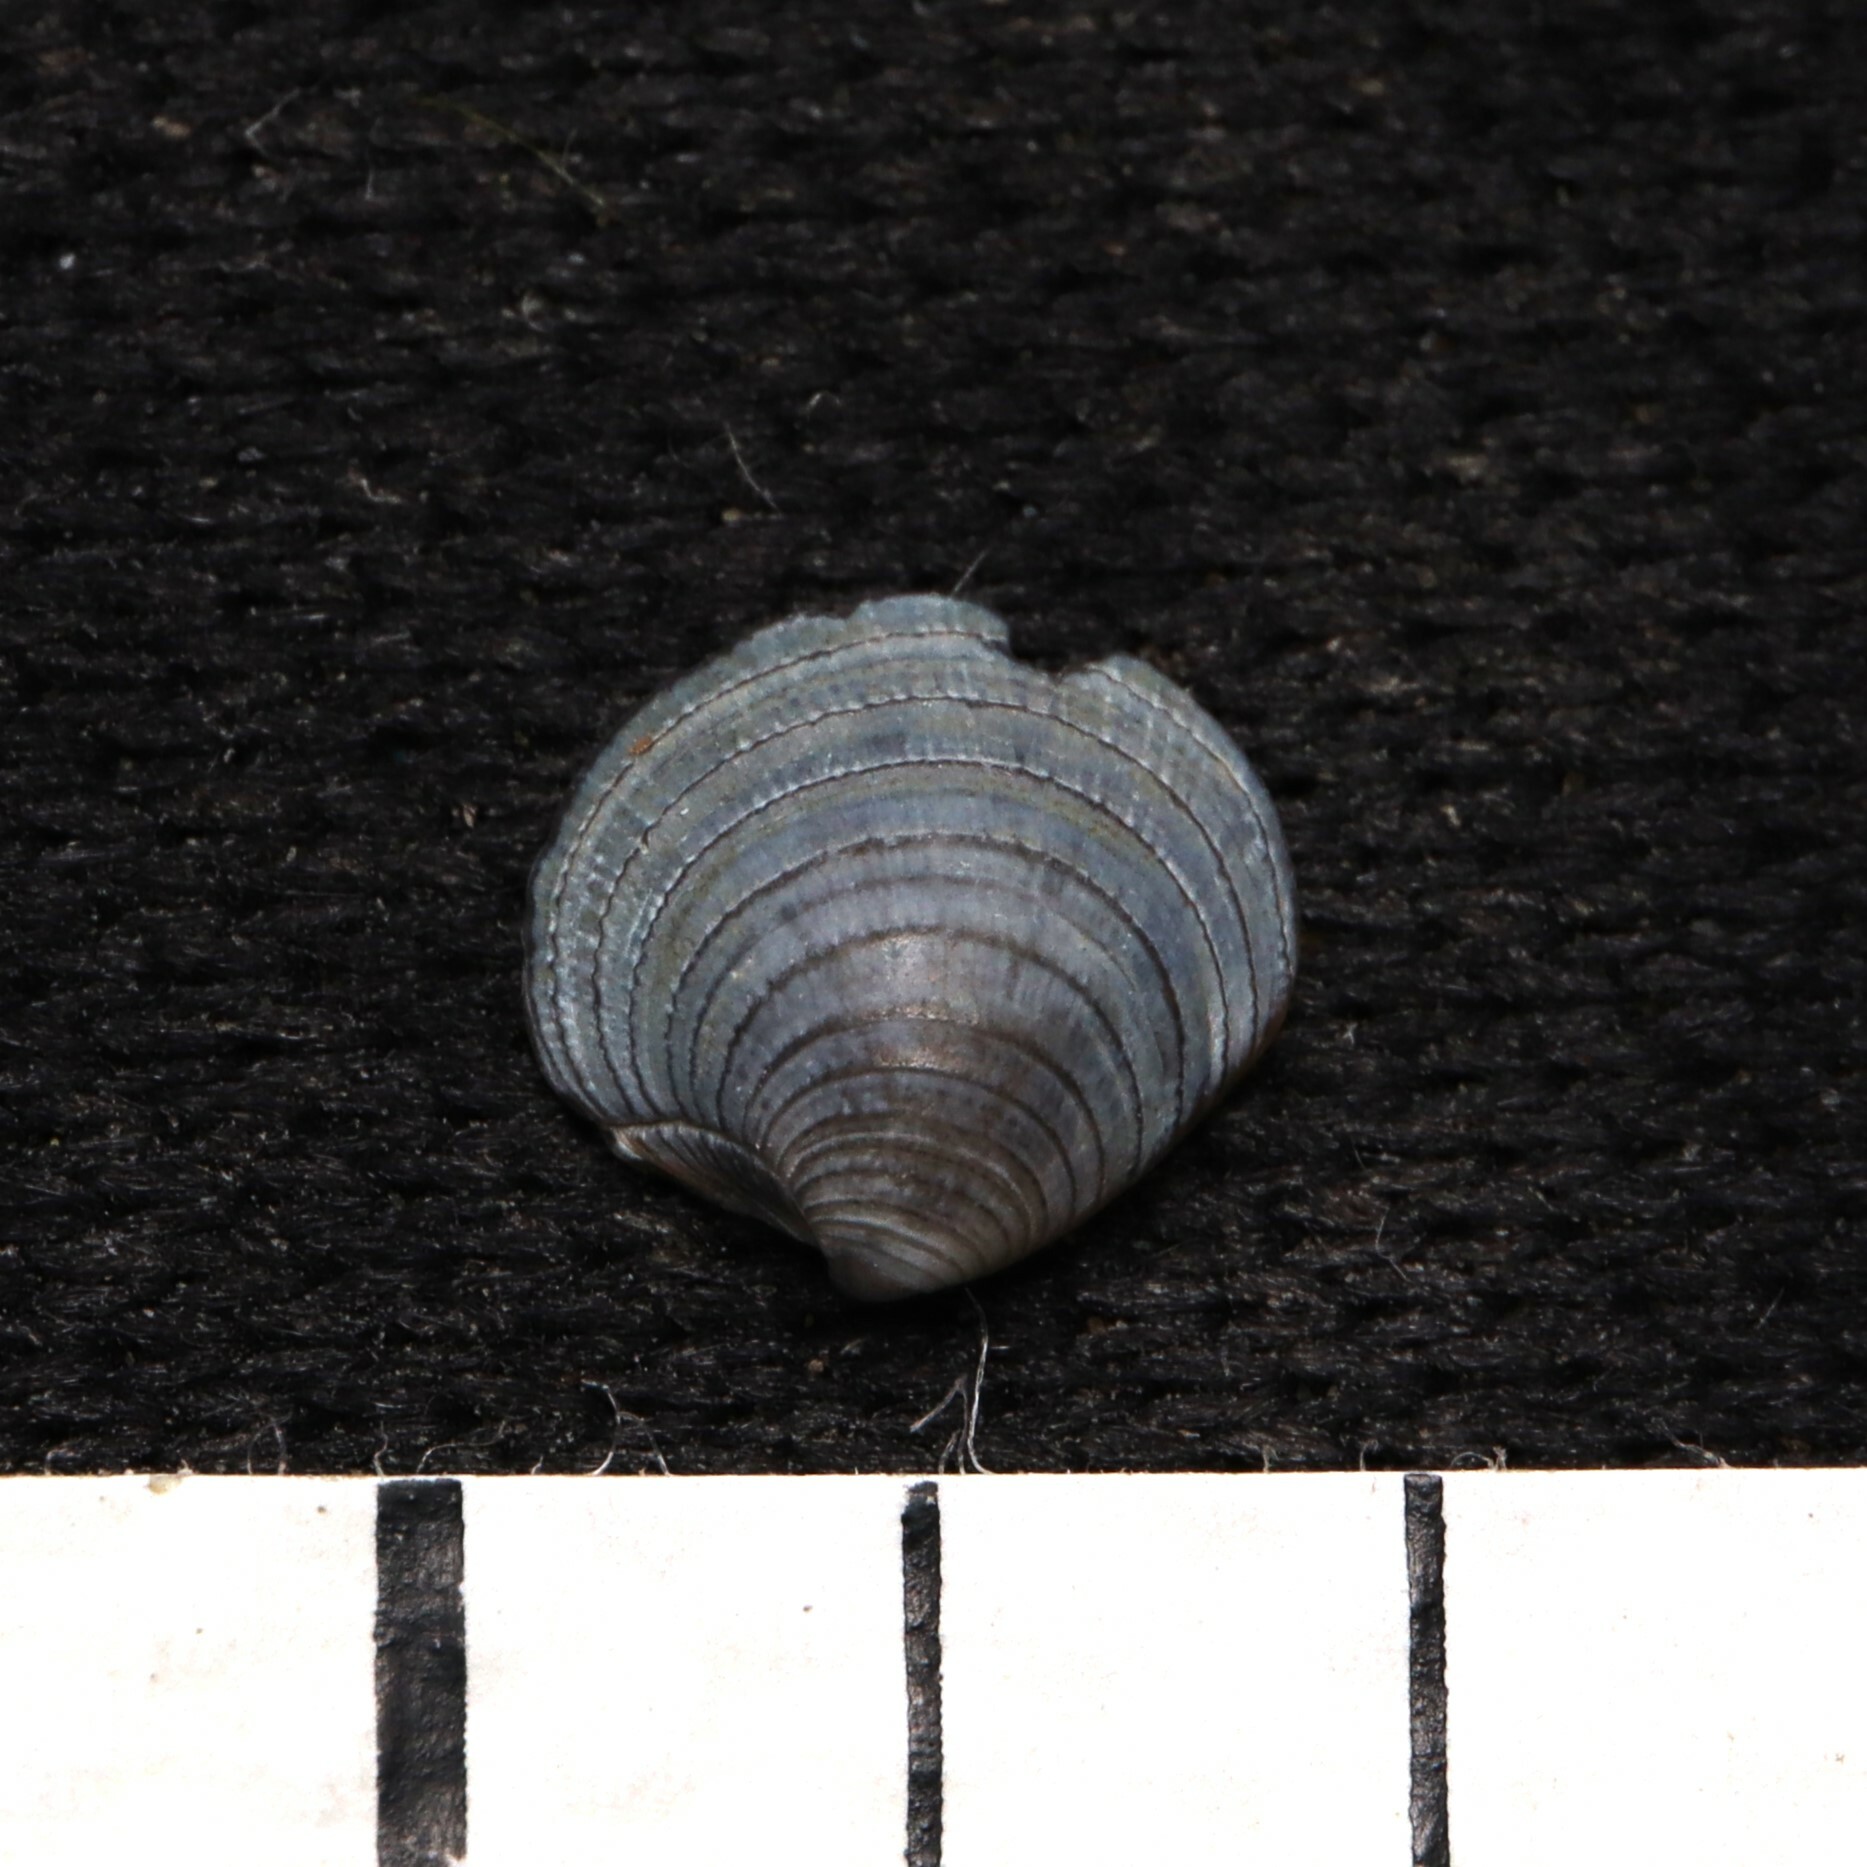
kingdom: Animalia
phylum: Mollusca
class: Bivalvia
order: Venerida
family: Veneridae
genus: Chionopsis
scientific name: Chionopsis intapurpurea
